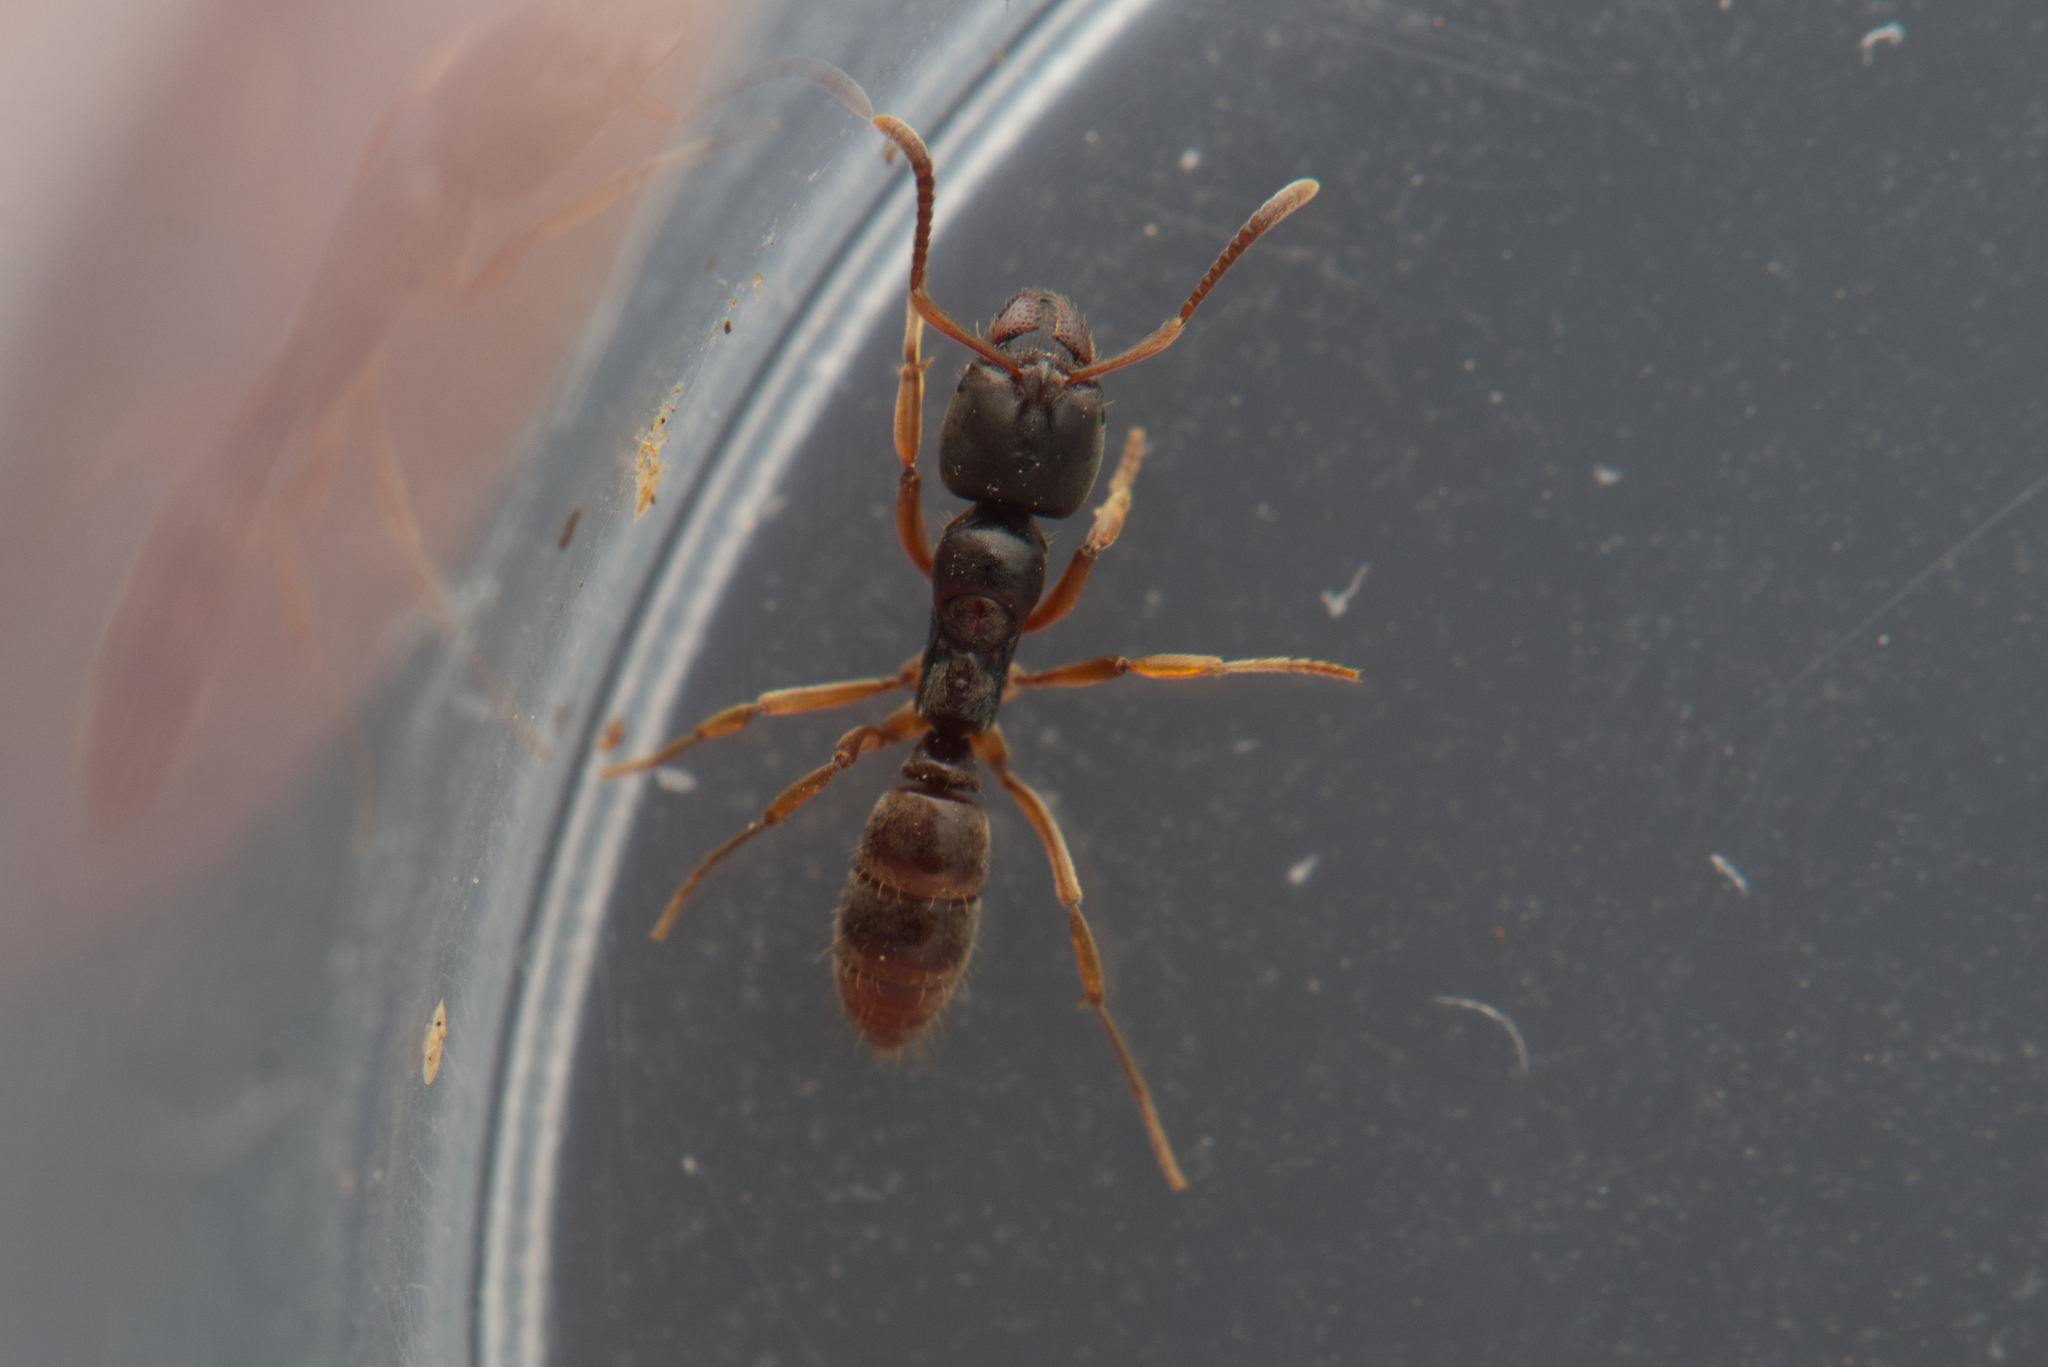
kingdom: Animalia
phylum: Arthropoda
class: Insecta
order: Hymenoptera
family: Formicidae
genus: Brachyponera
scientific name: Brachyponera
